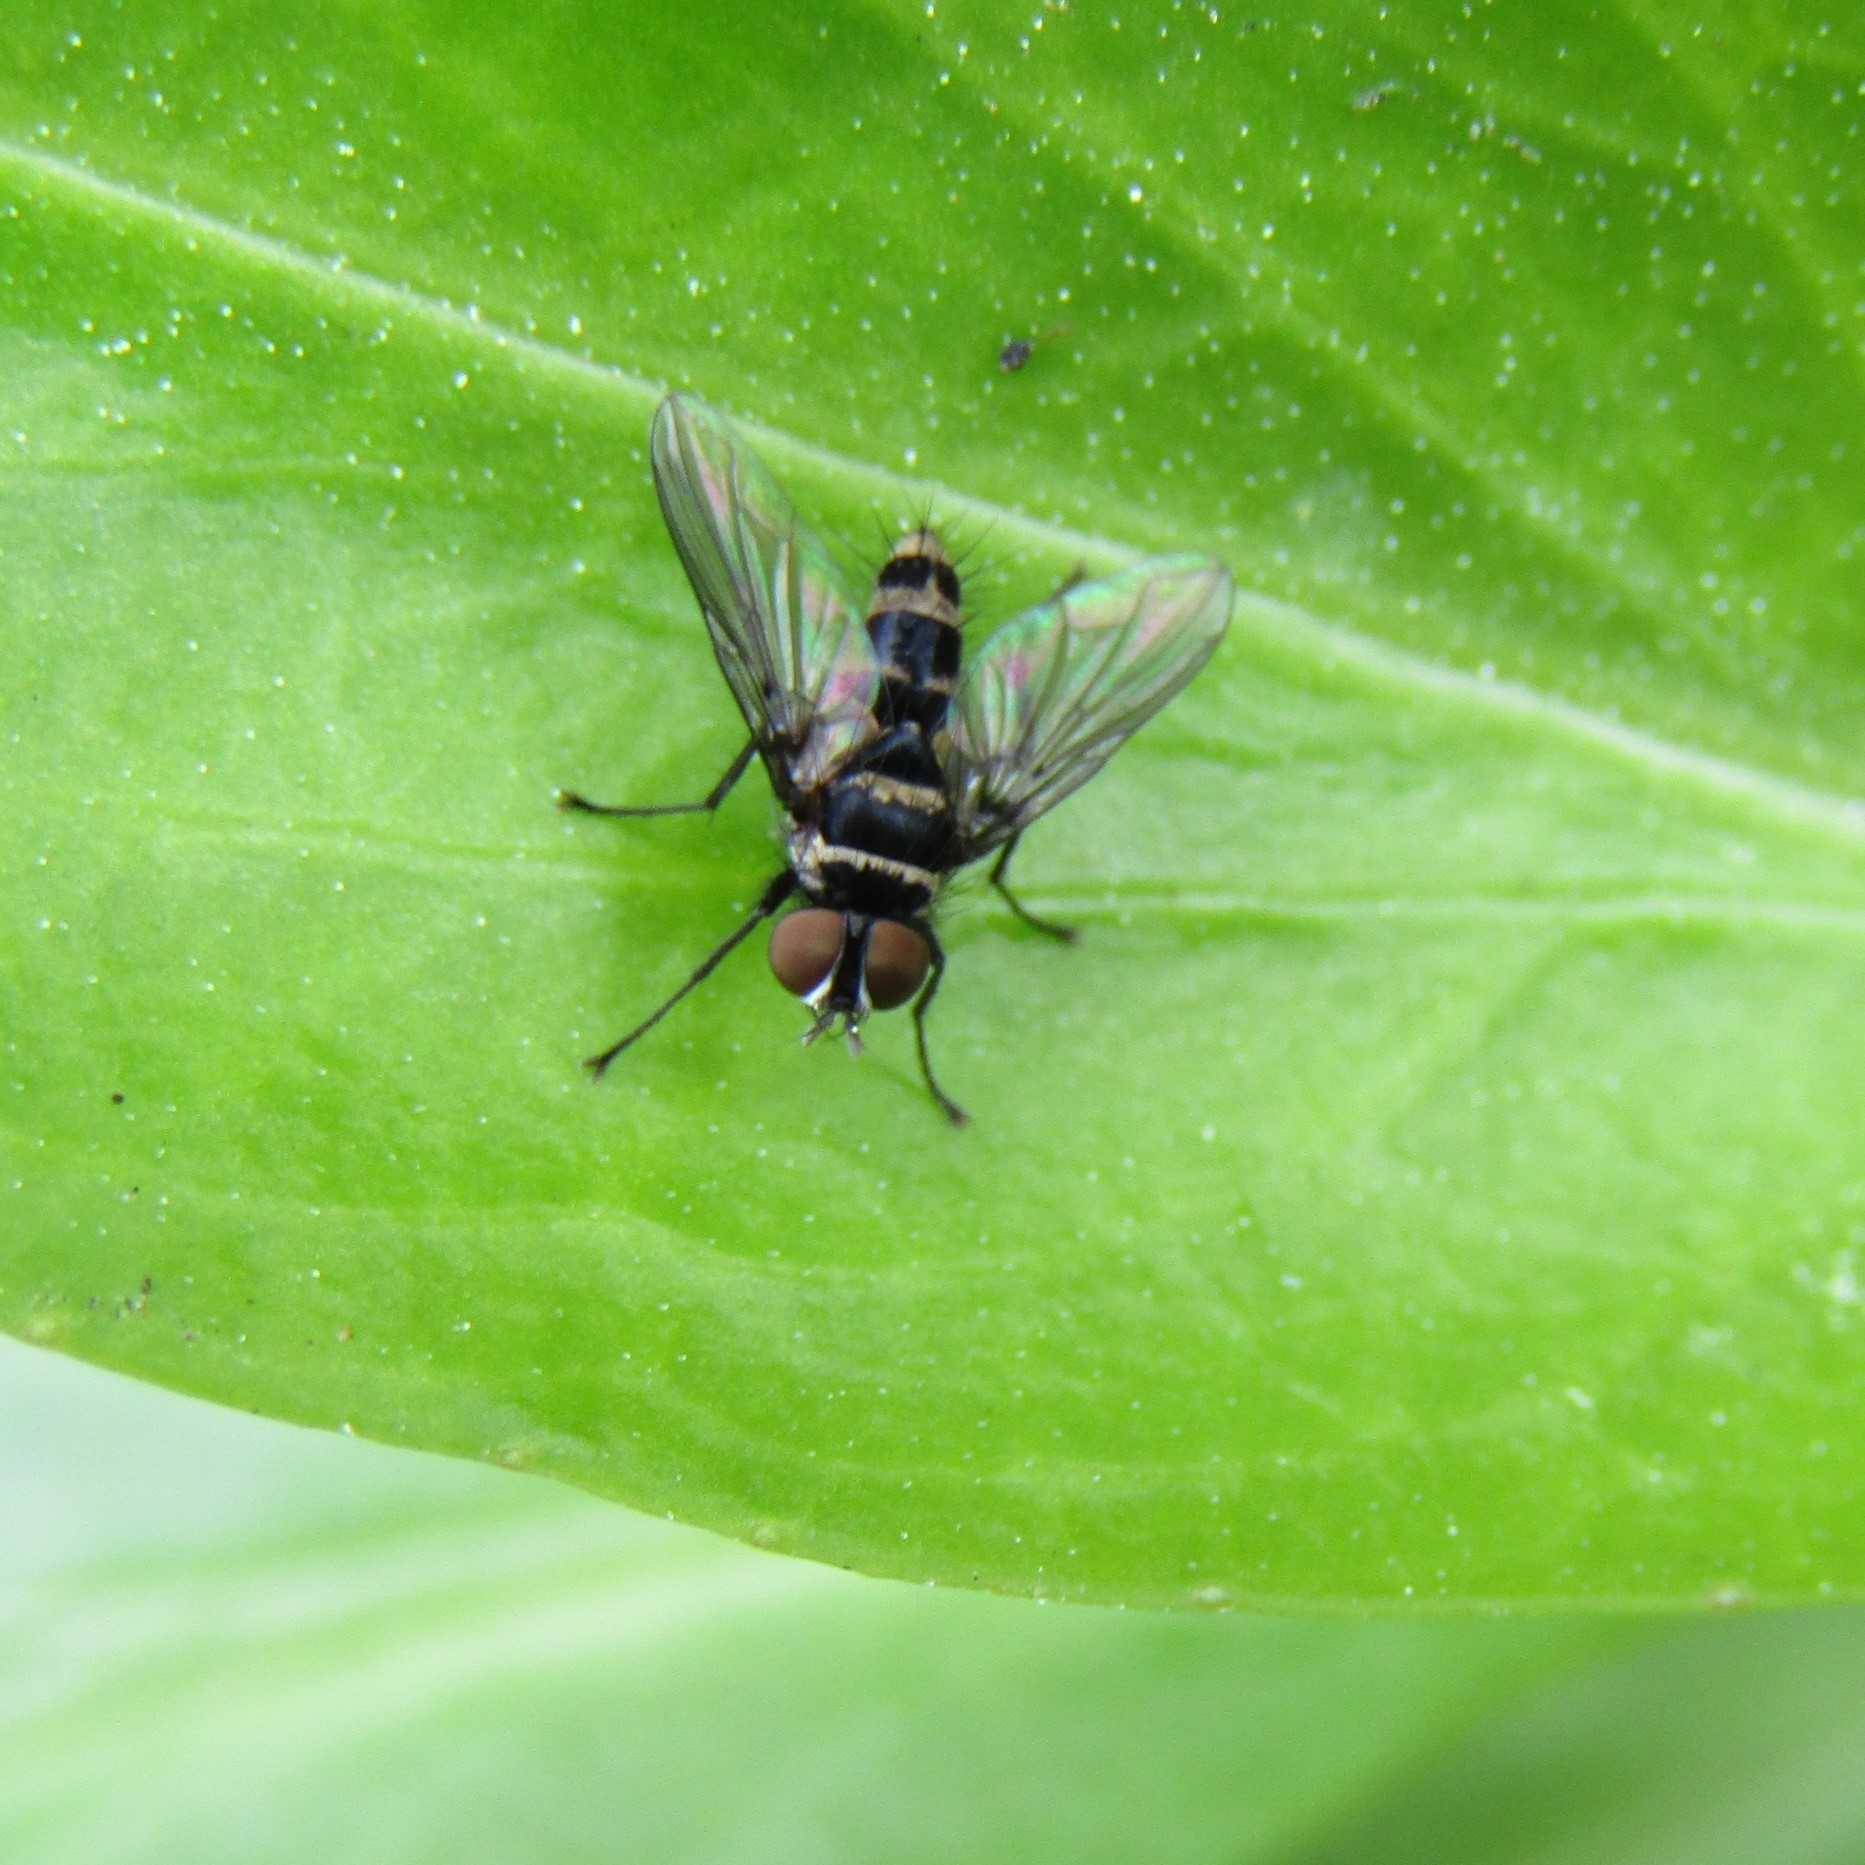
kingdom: Animalia
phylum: Arthropoda
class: Insecta
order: Diptera
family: Tachinidae
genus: Trigonospila
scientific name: Trigonospila brevifacies
